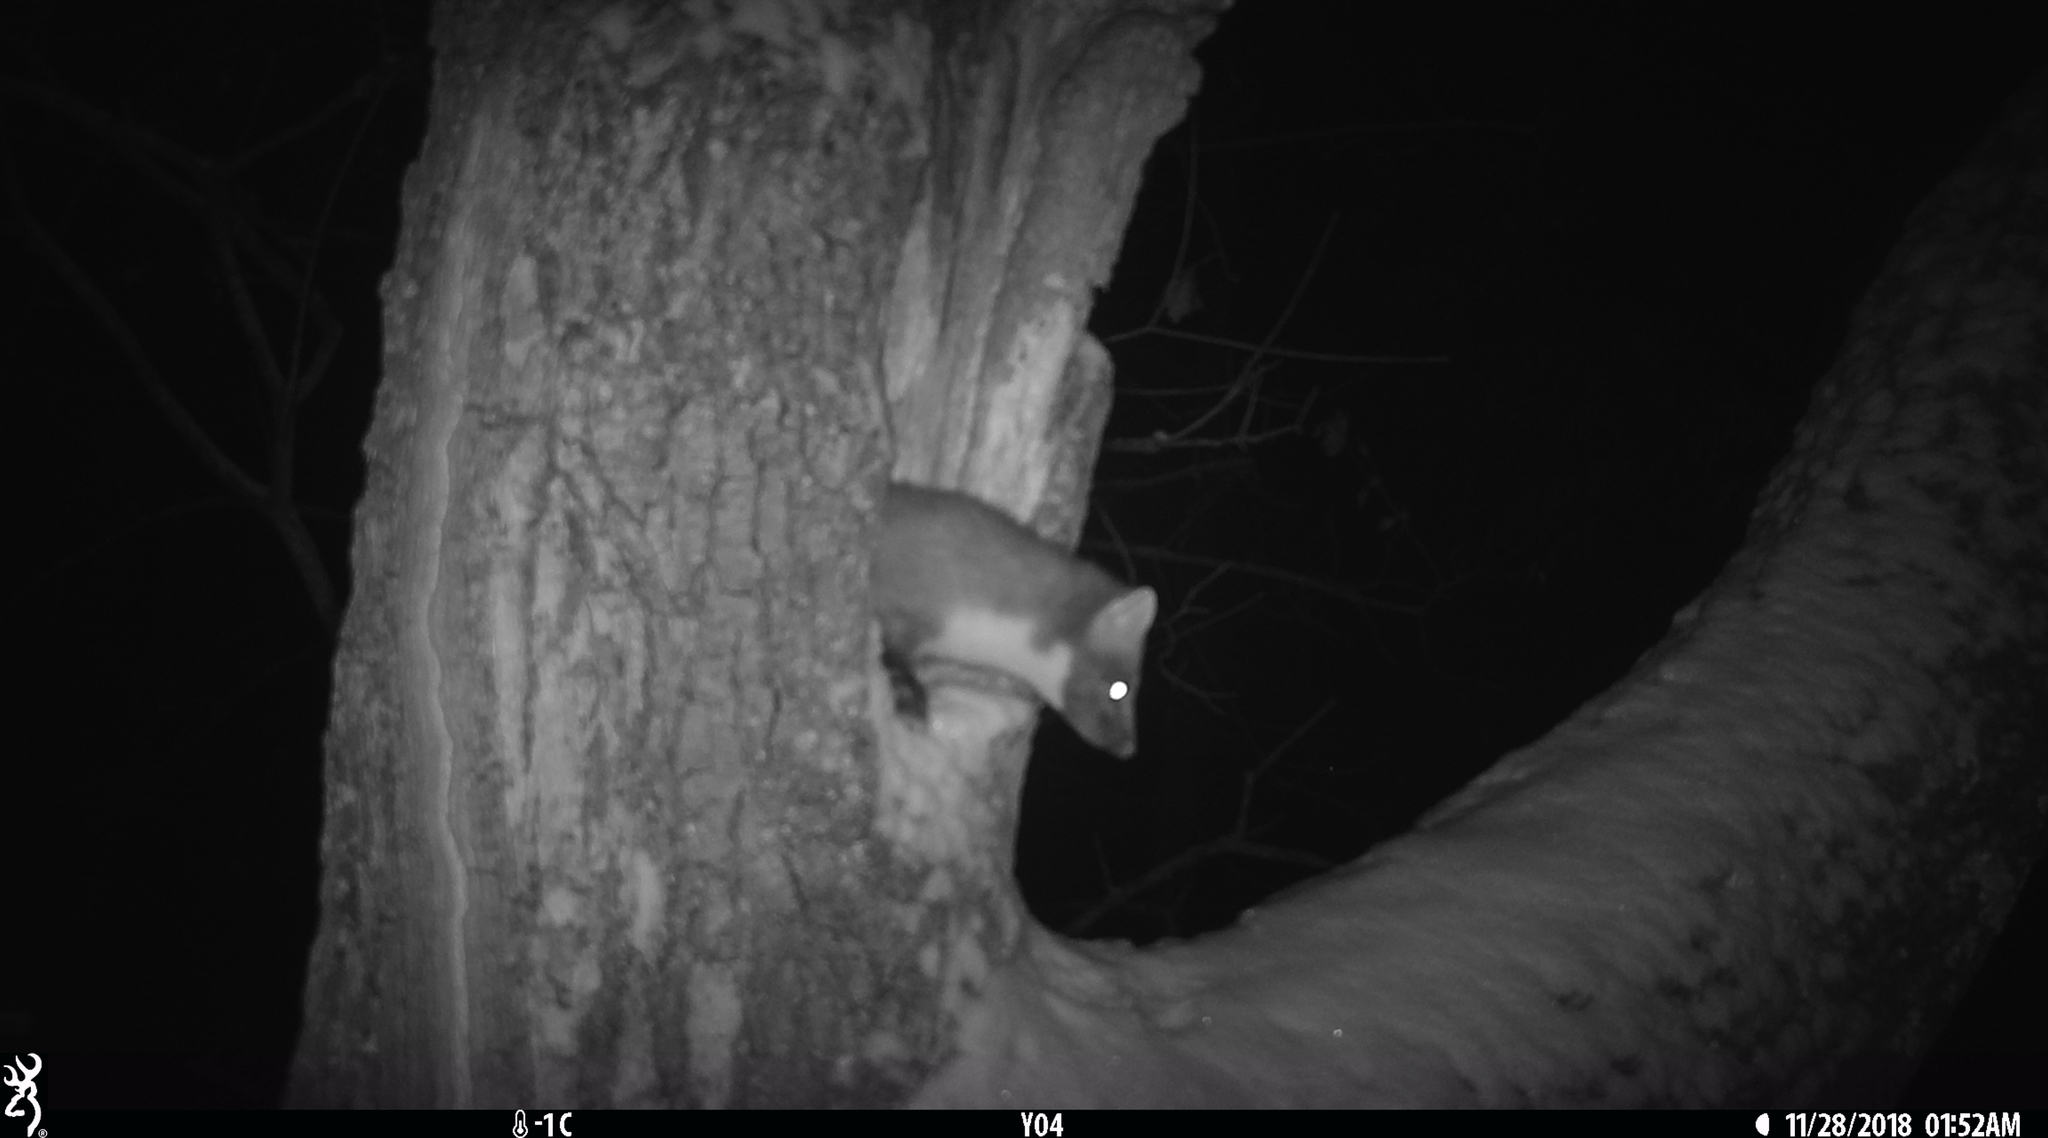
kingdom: Animalia
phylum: Chordata
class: Mammalia
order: Carnivora
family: Mustelidae
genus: Martes
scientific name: Martes martes
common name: European pine marten
